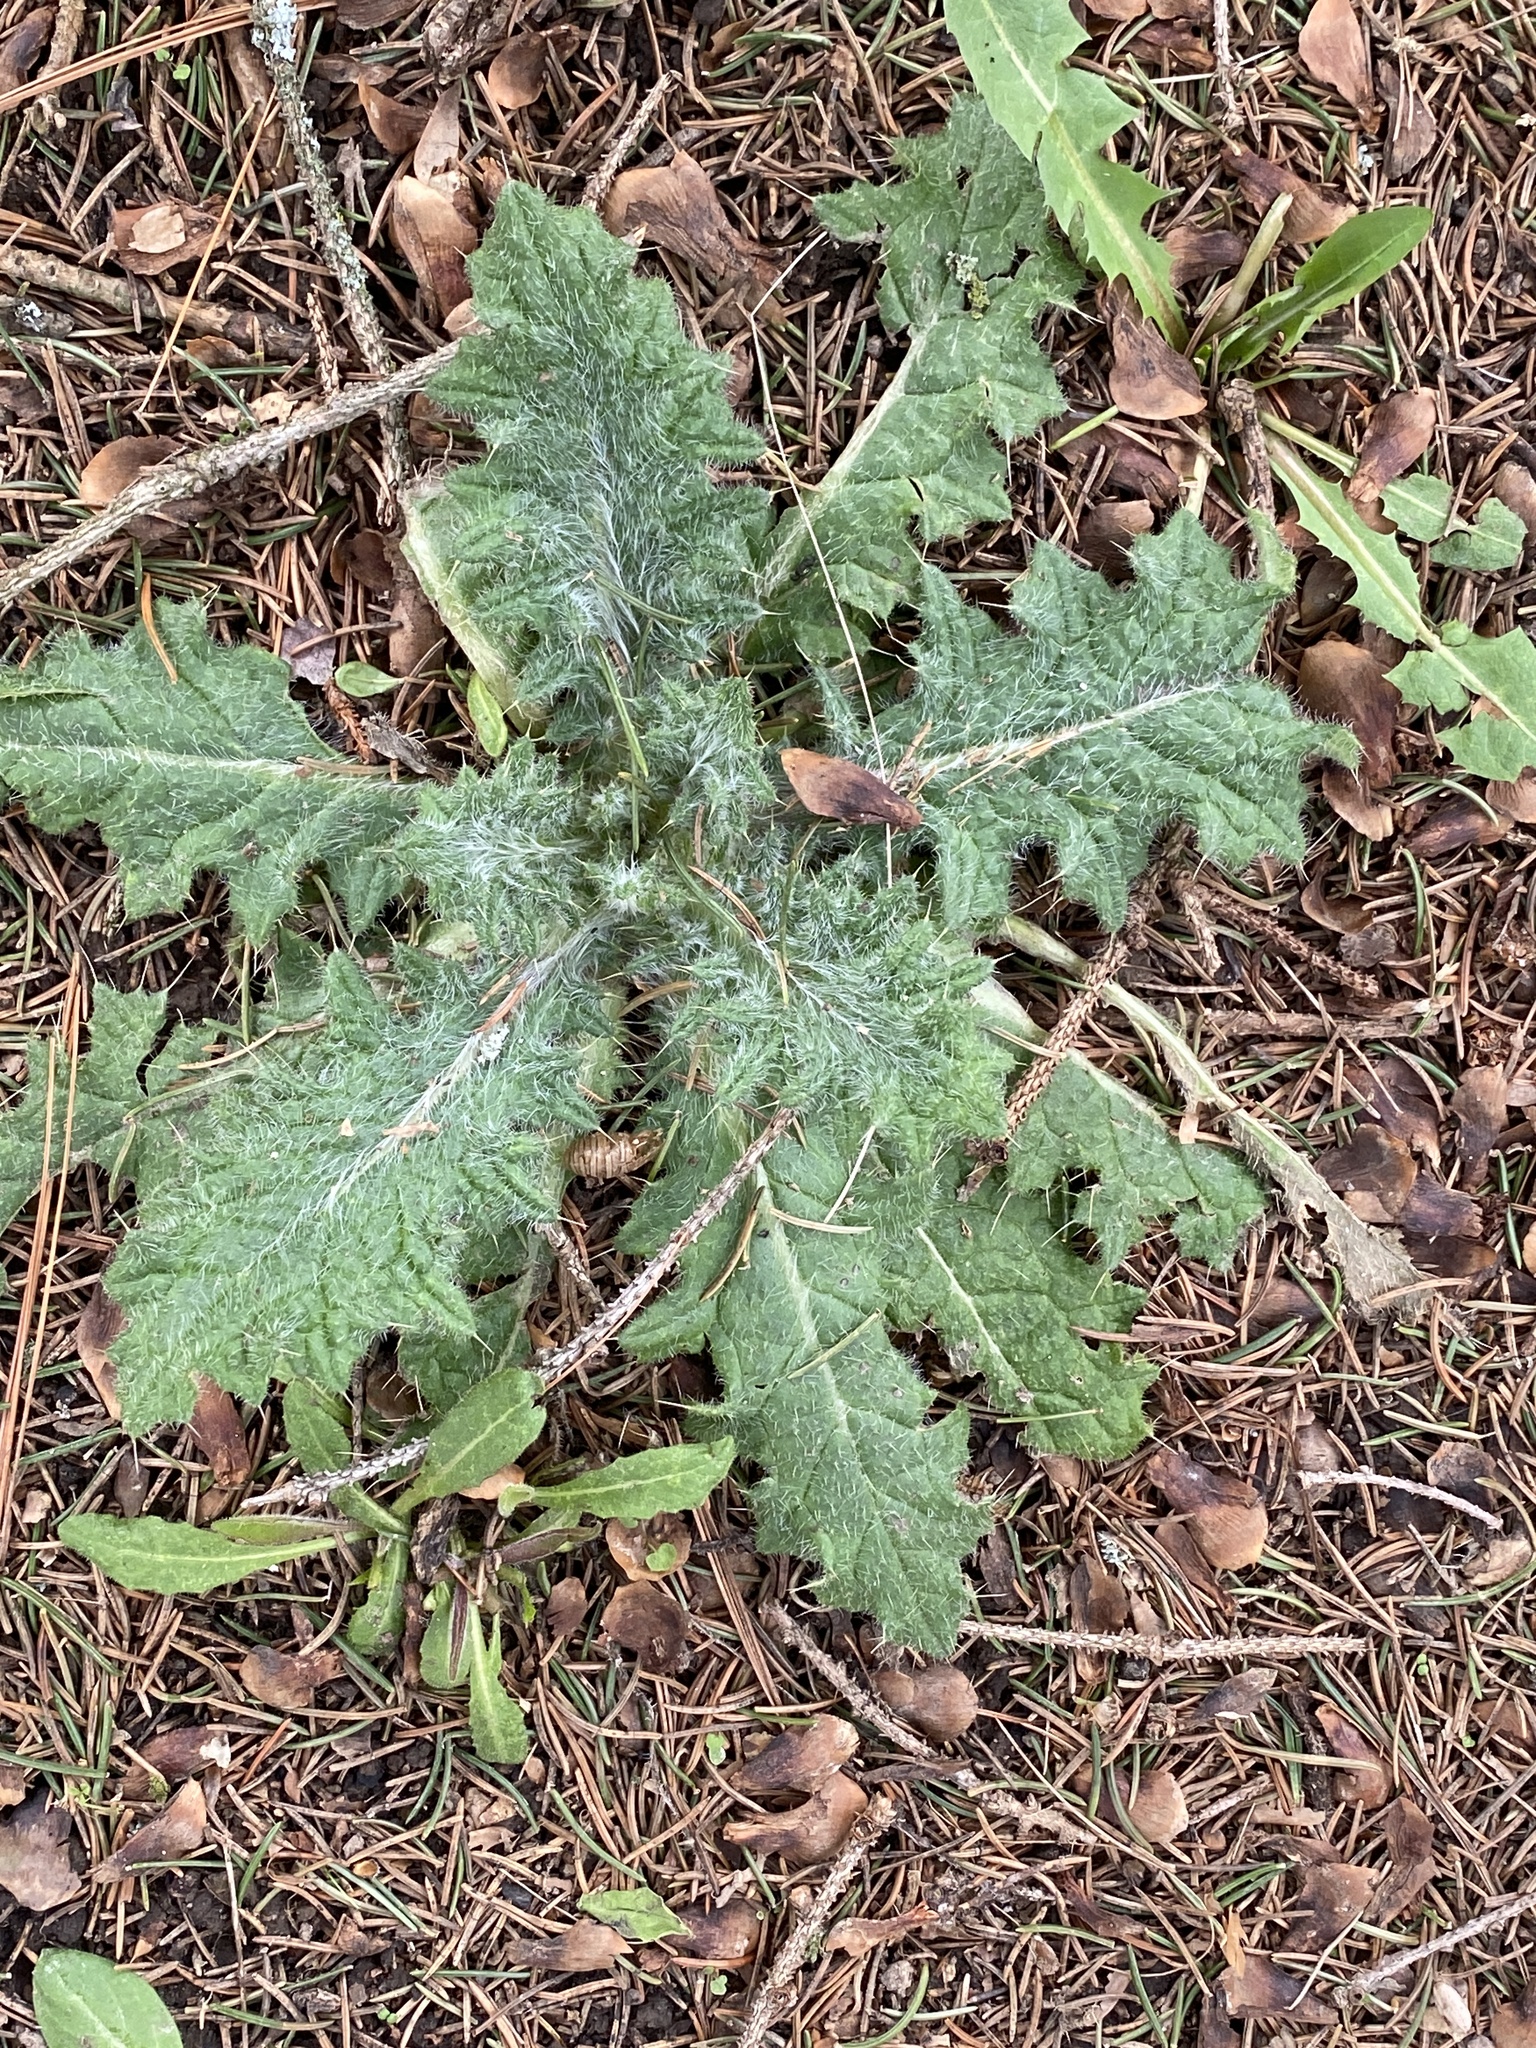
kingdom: Plantae
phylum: Tracheophyta
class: Magnoliopsida
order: Asterales
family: Asteraceae
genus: Cirsium
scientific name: Cirsium vulgare
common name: Bull thistle
